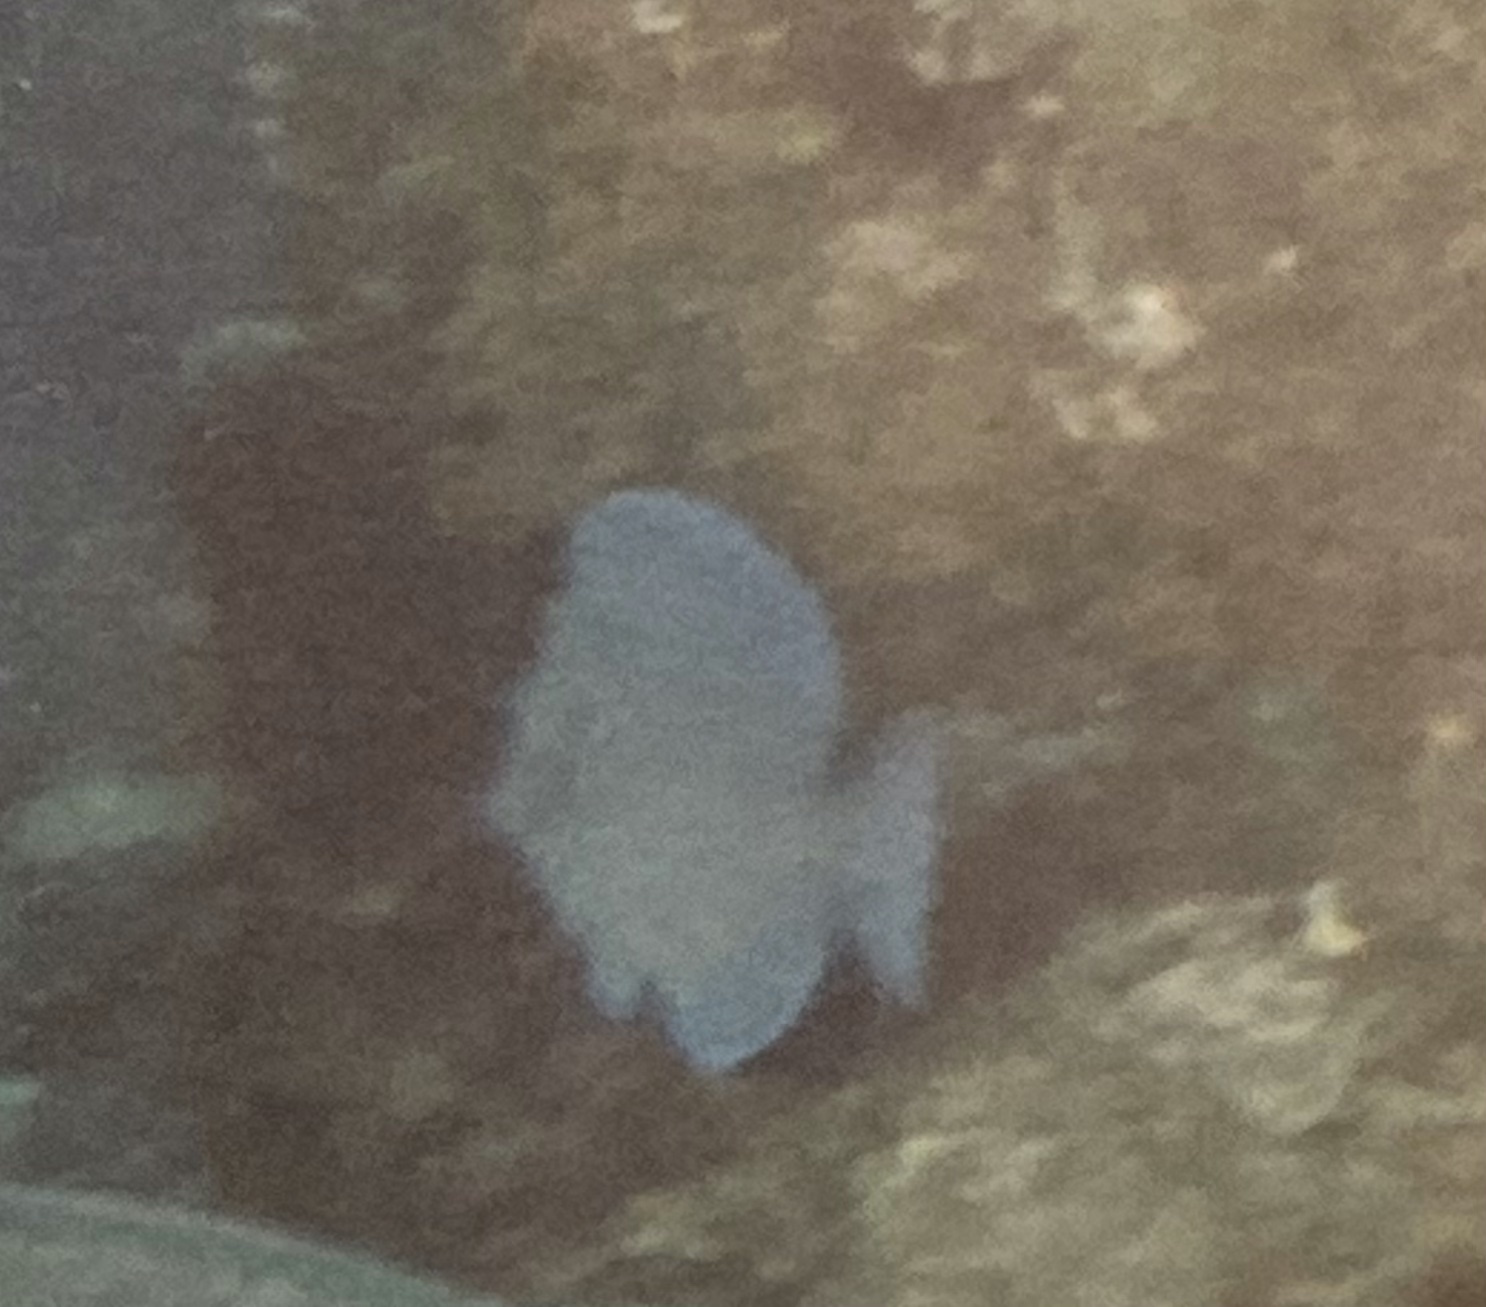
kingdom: Animalia
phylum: Chordata
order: Perciformes
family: Acanthuridae
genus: Acanthurus
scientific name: Acanthurus coeruleus
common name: Blue tang
